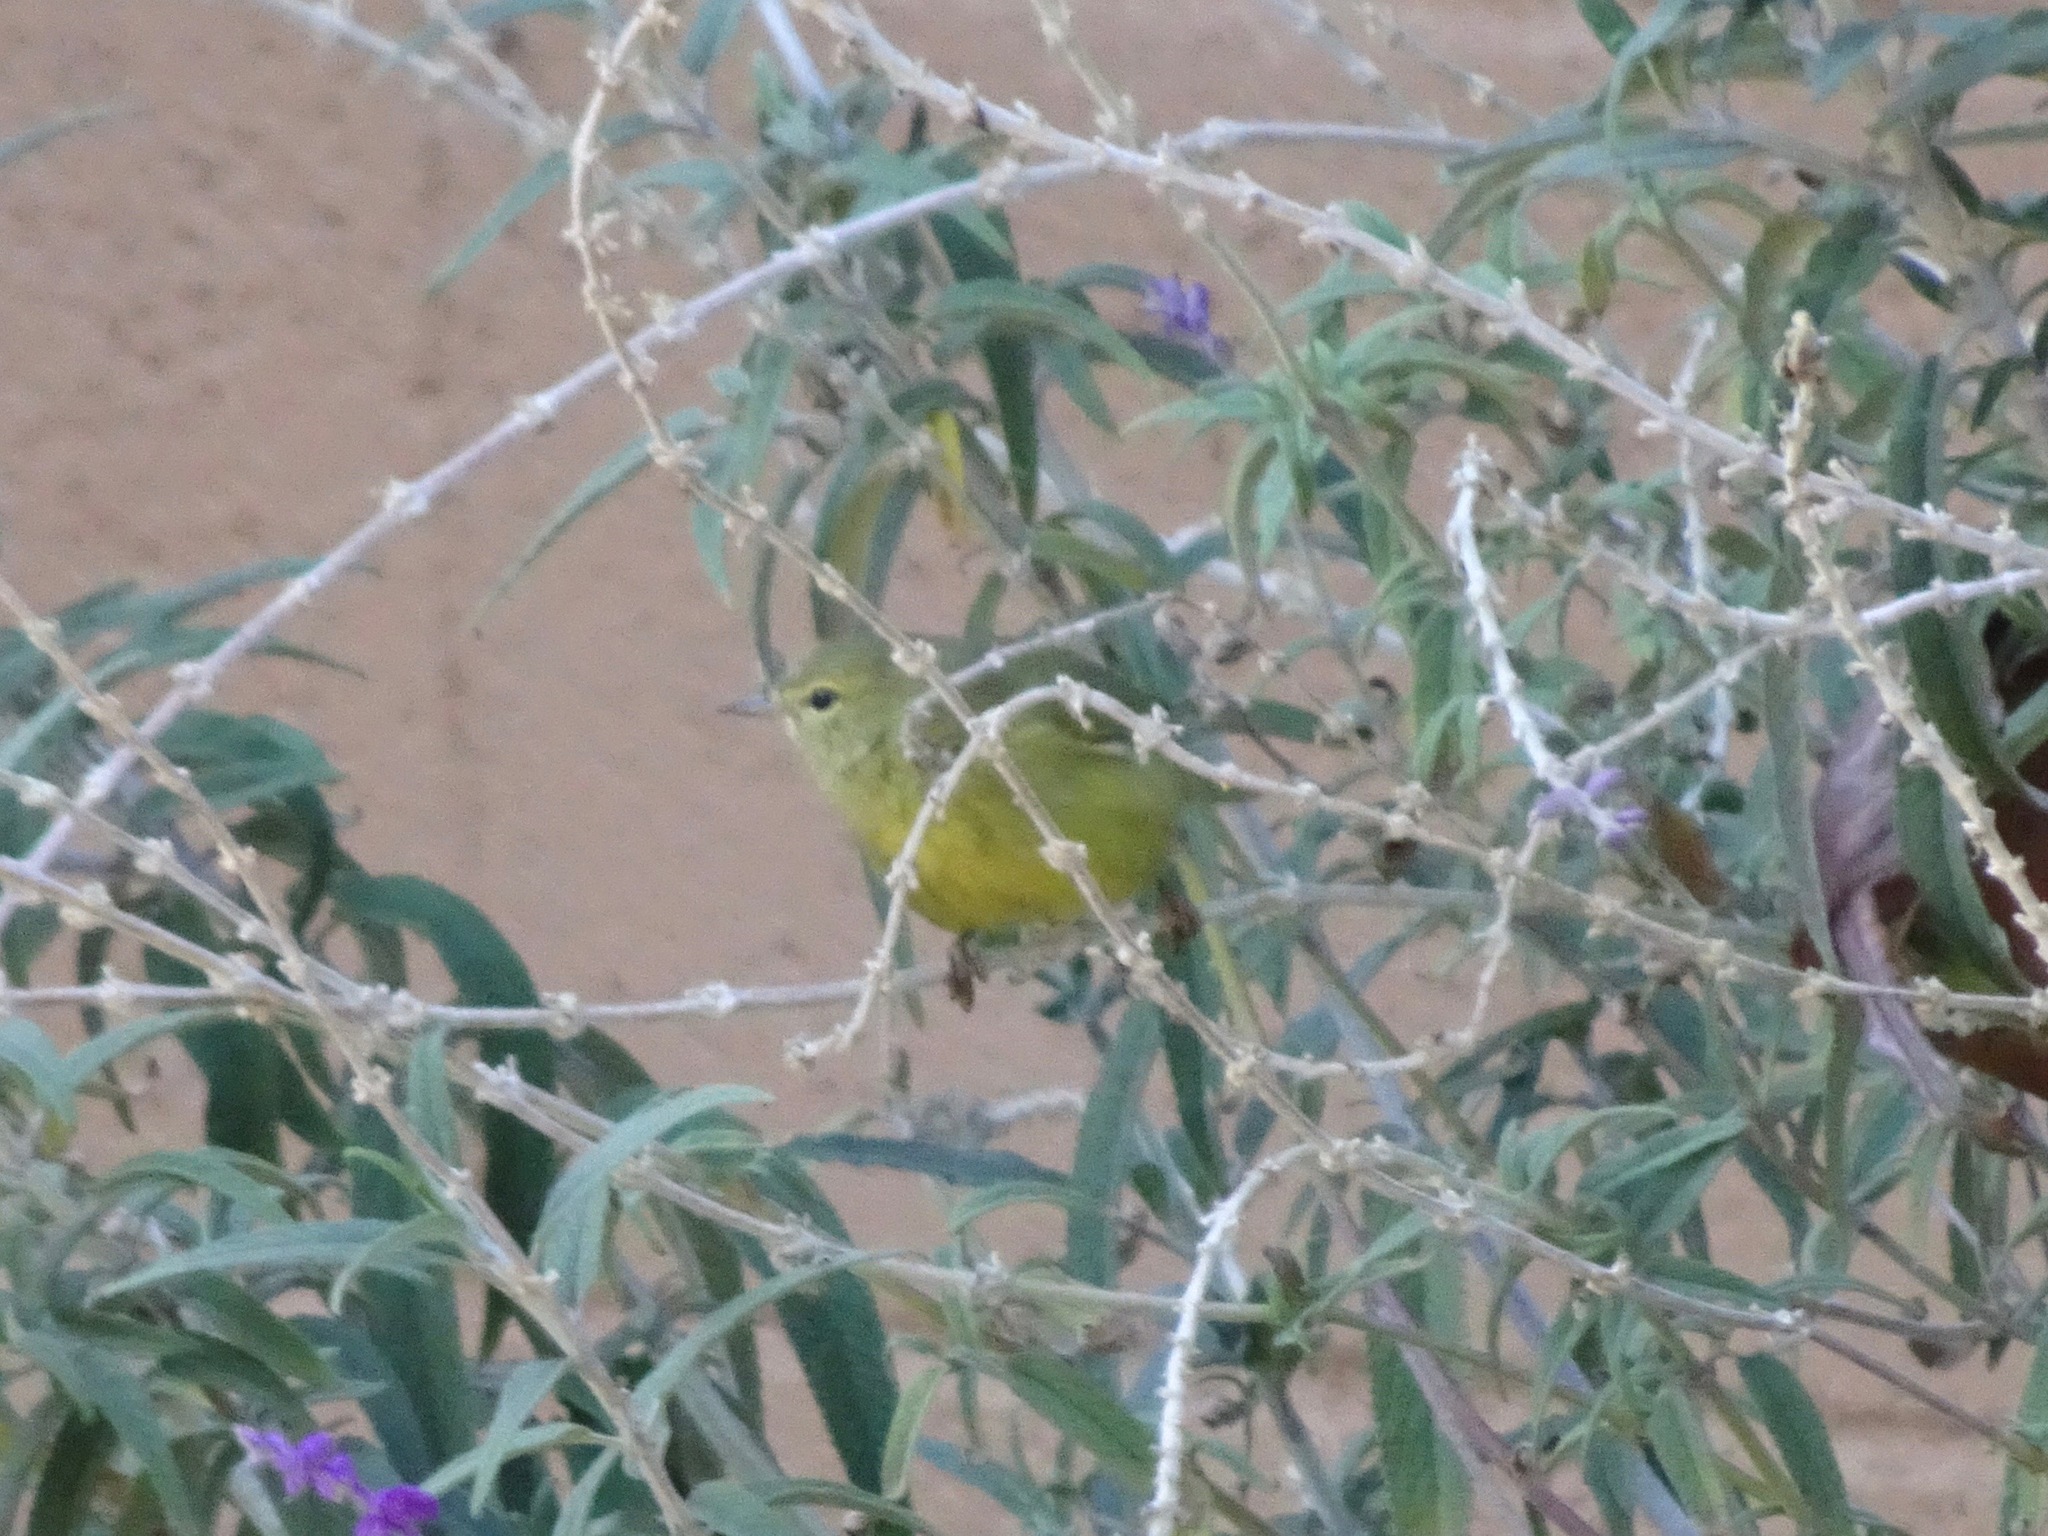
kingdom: Animalia
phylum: Chordata
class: Aves
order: Passeriformes
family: Parulidae
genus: Leiothlypis
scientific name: Leiothlypis celata
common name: Orange-crowned warbler
